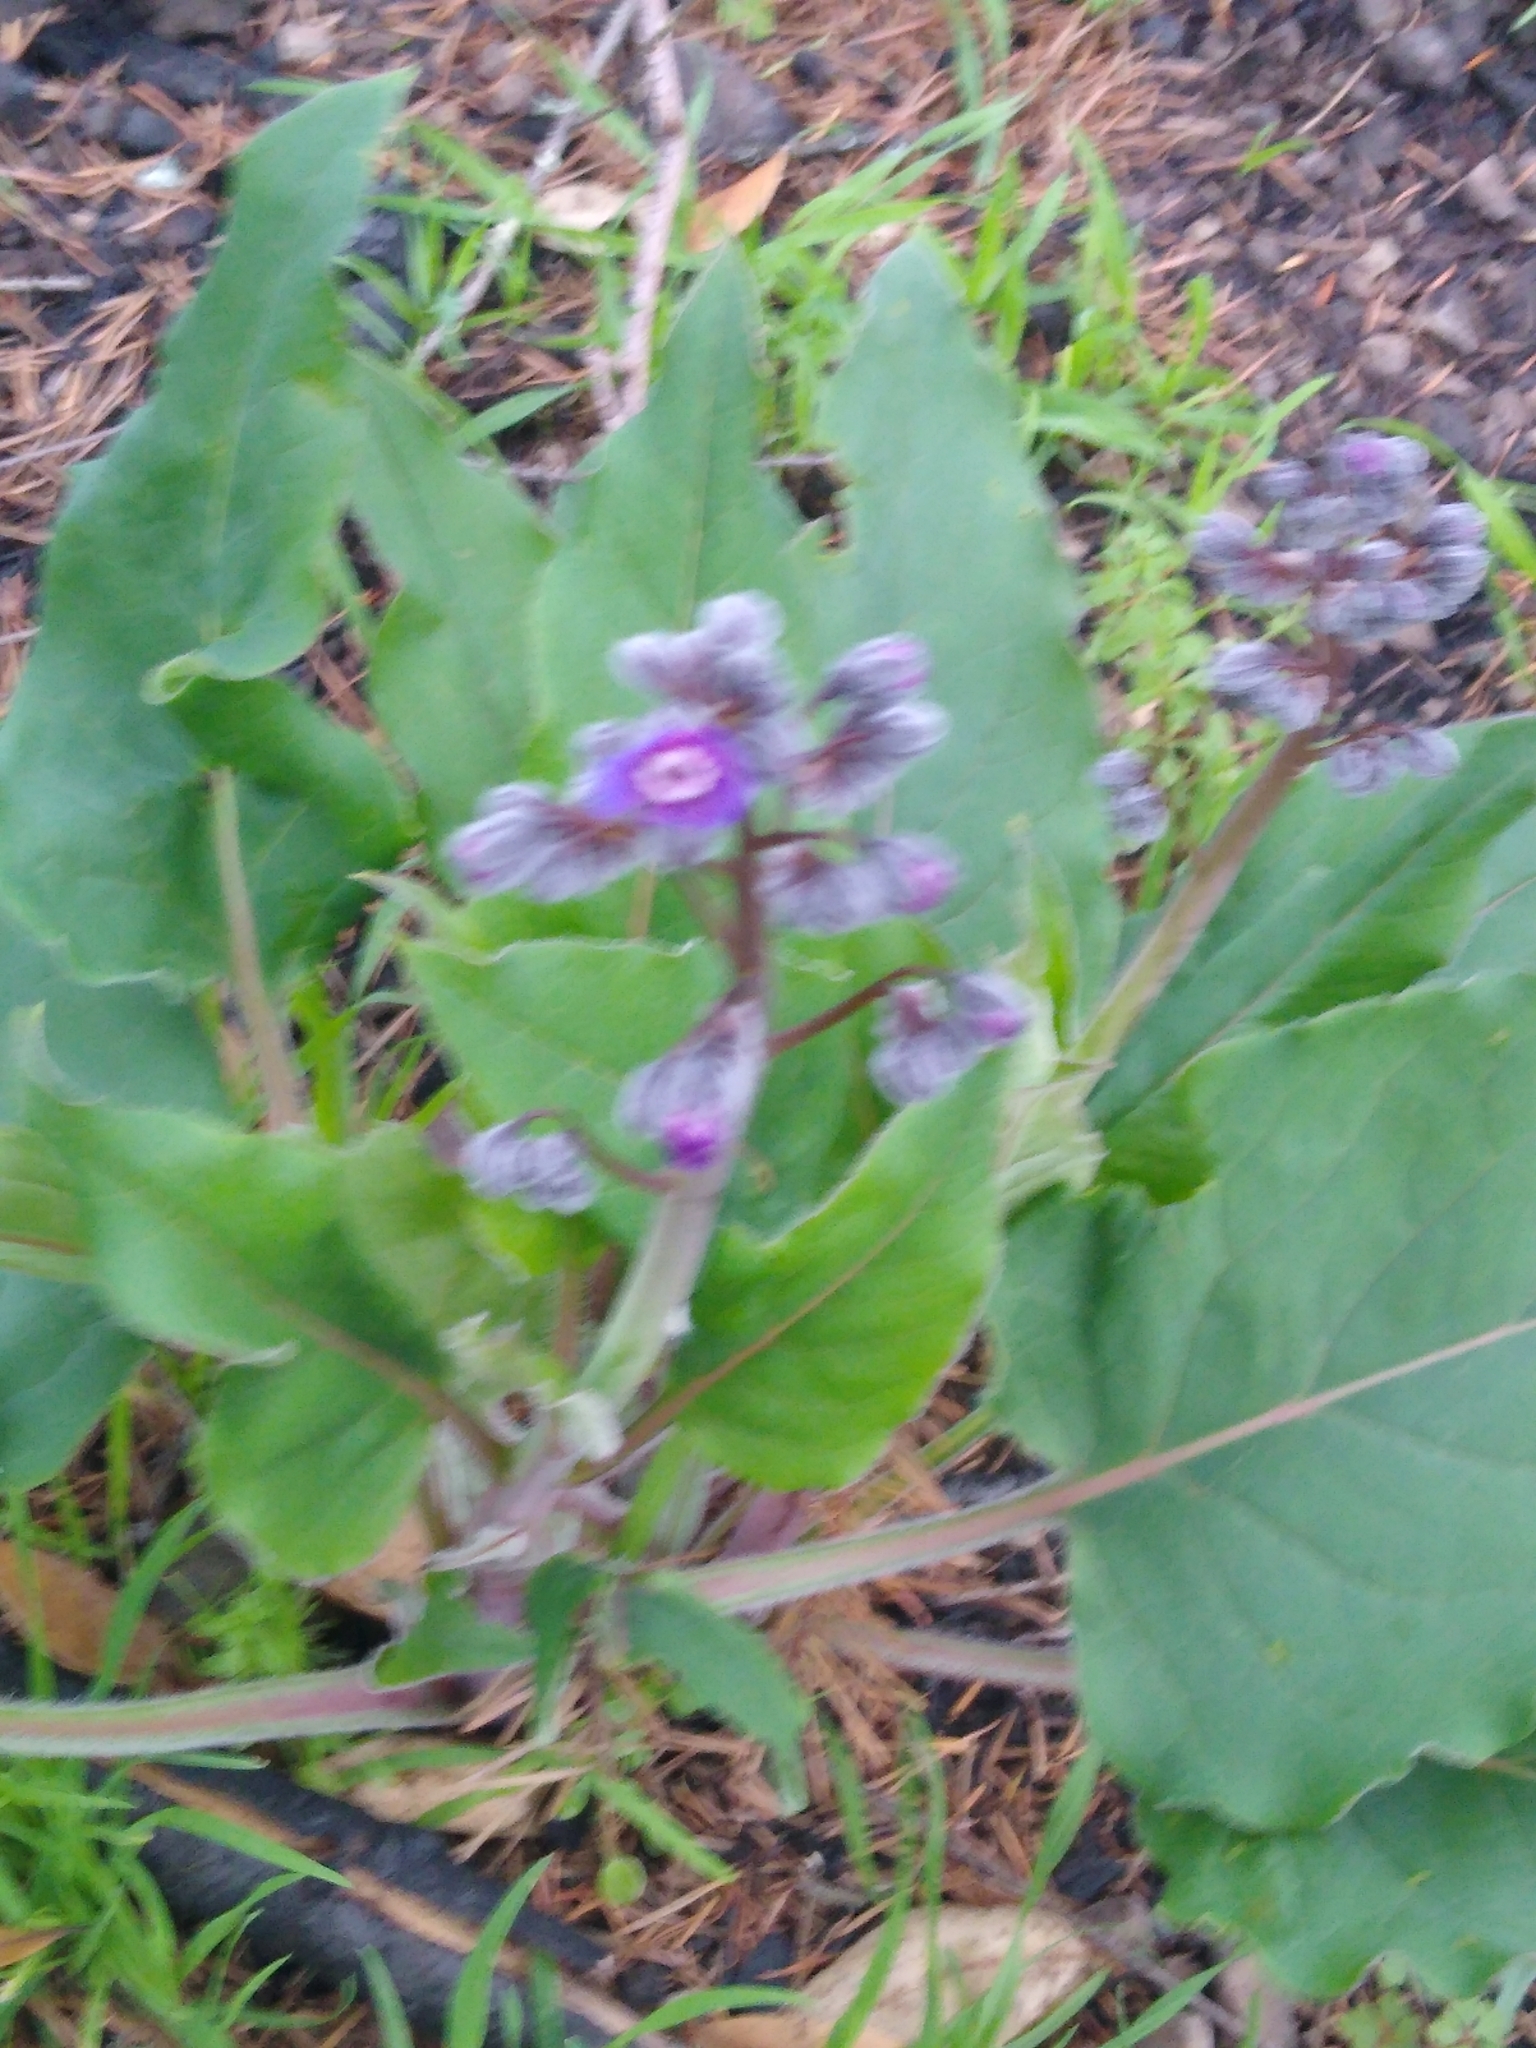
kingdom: Plantae
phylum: Tracheophyta
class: Magnoliopsida
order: Boraginales
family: Boraginaceae
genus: Adelinia
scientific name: Adelinia grande
